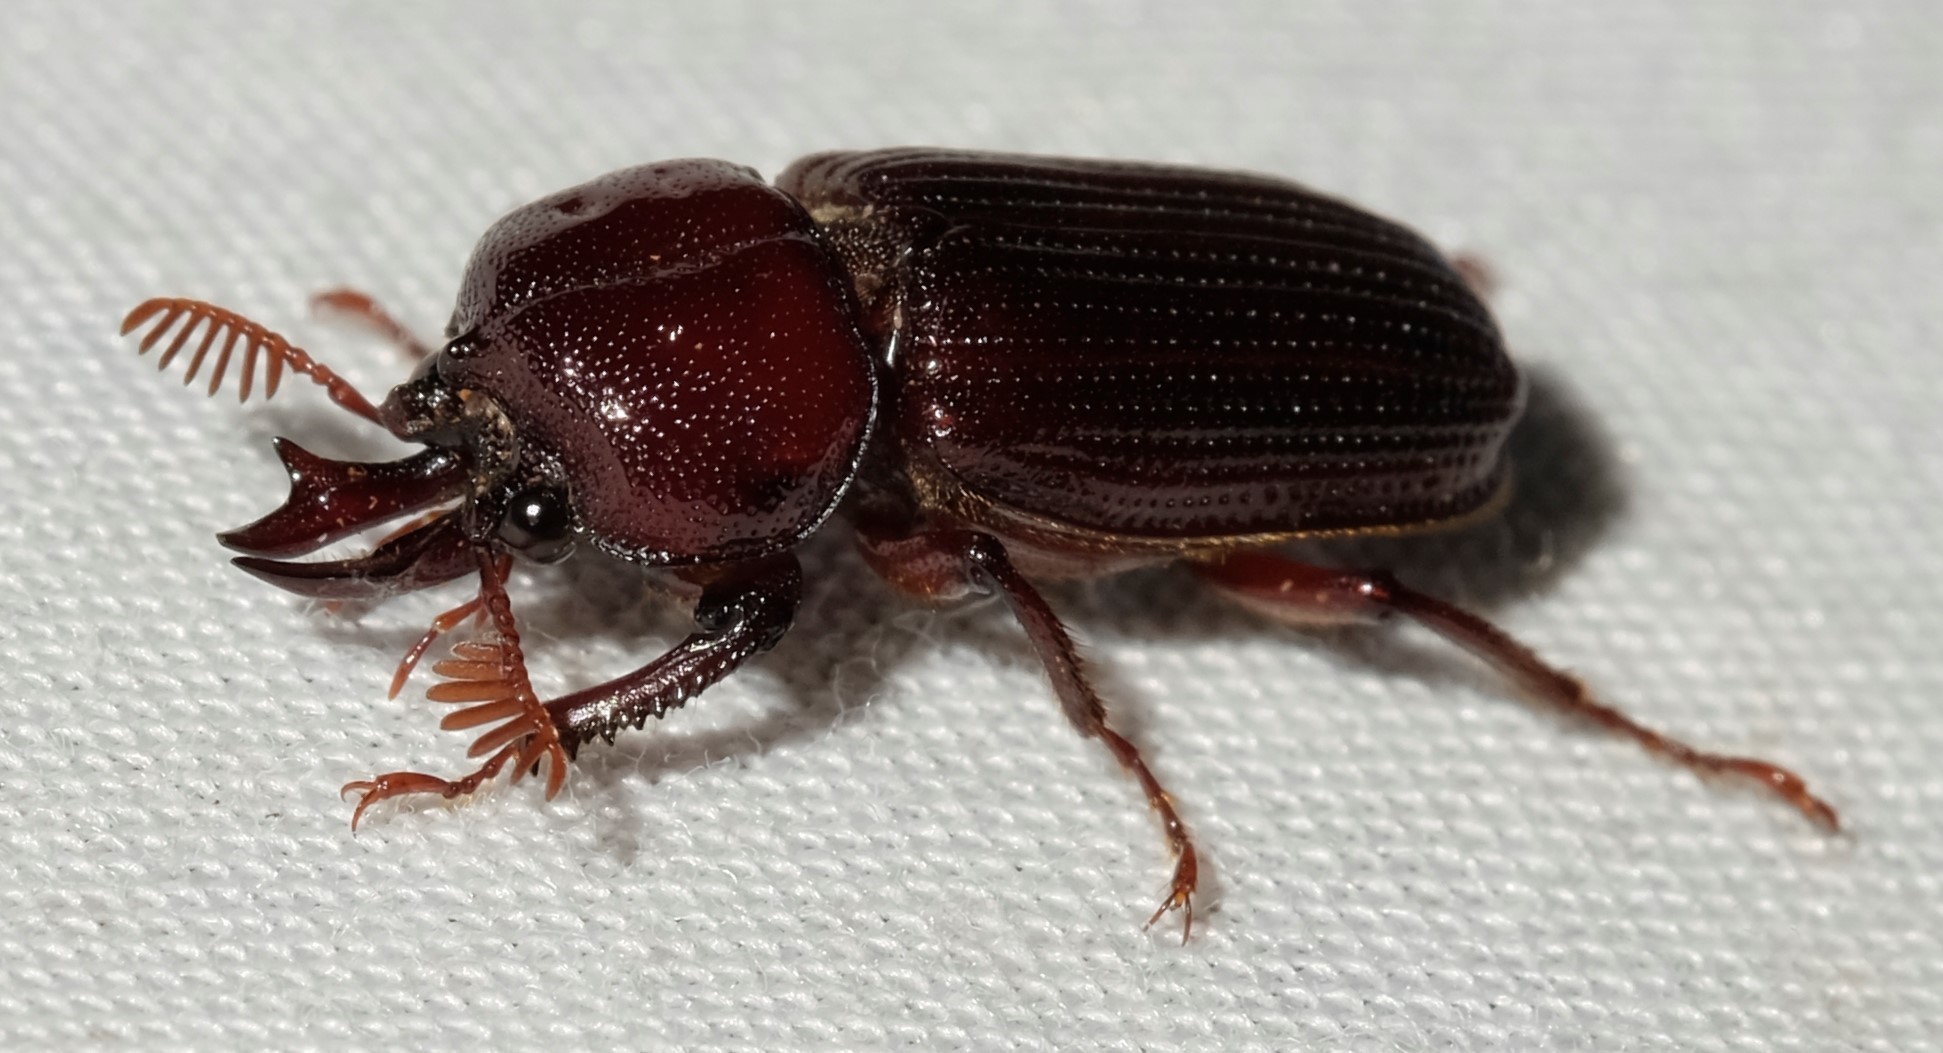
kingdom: Animalia
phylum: Arthropoda
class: Insecta
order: Coleoptera
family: Lucanidae
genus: Syndesus
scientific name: Syndesus cornutus
